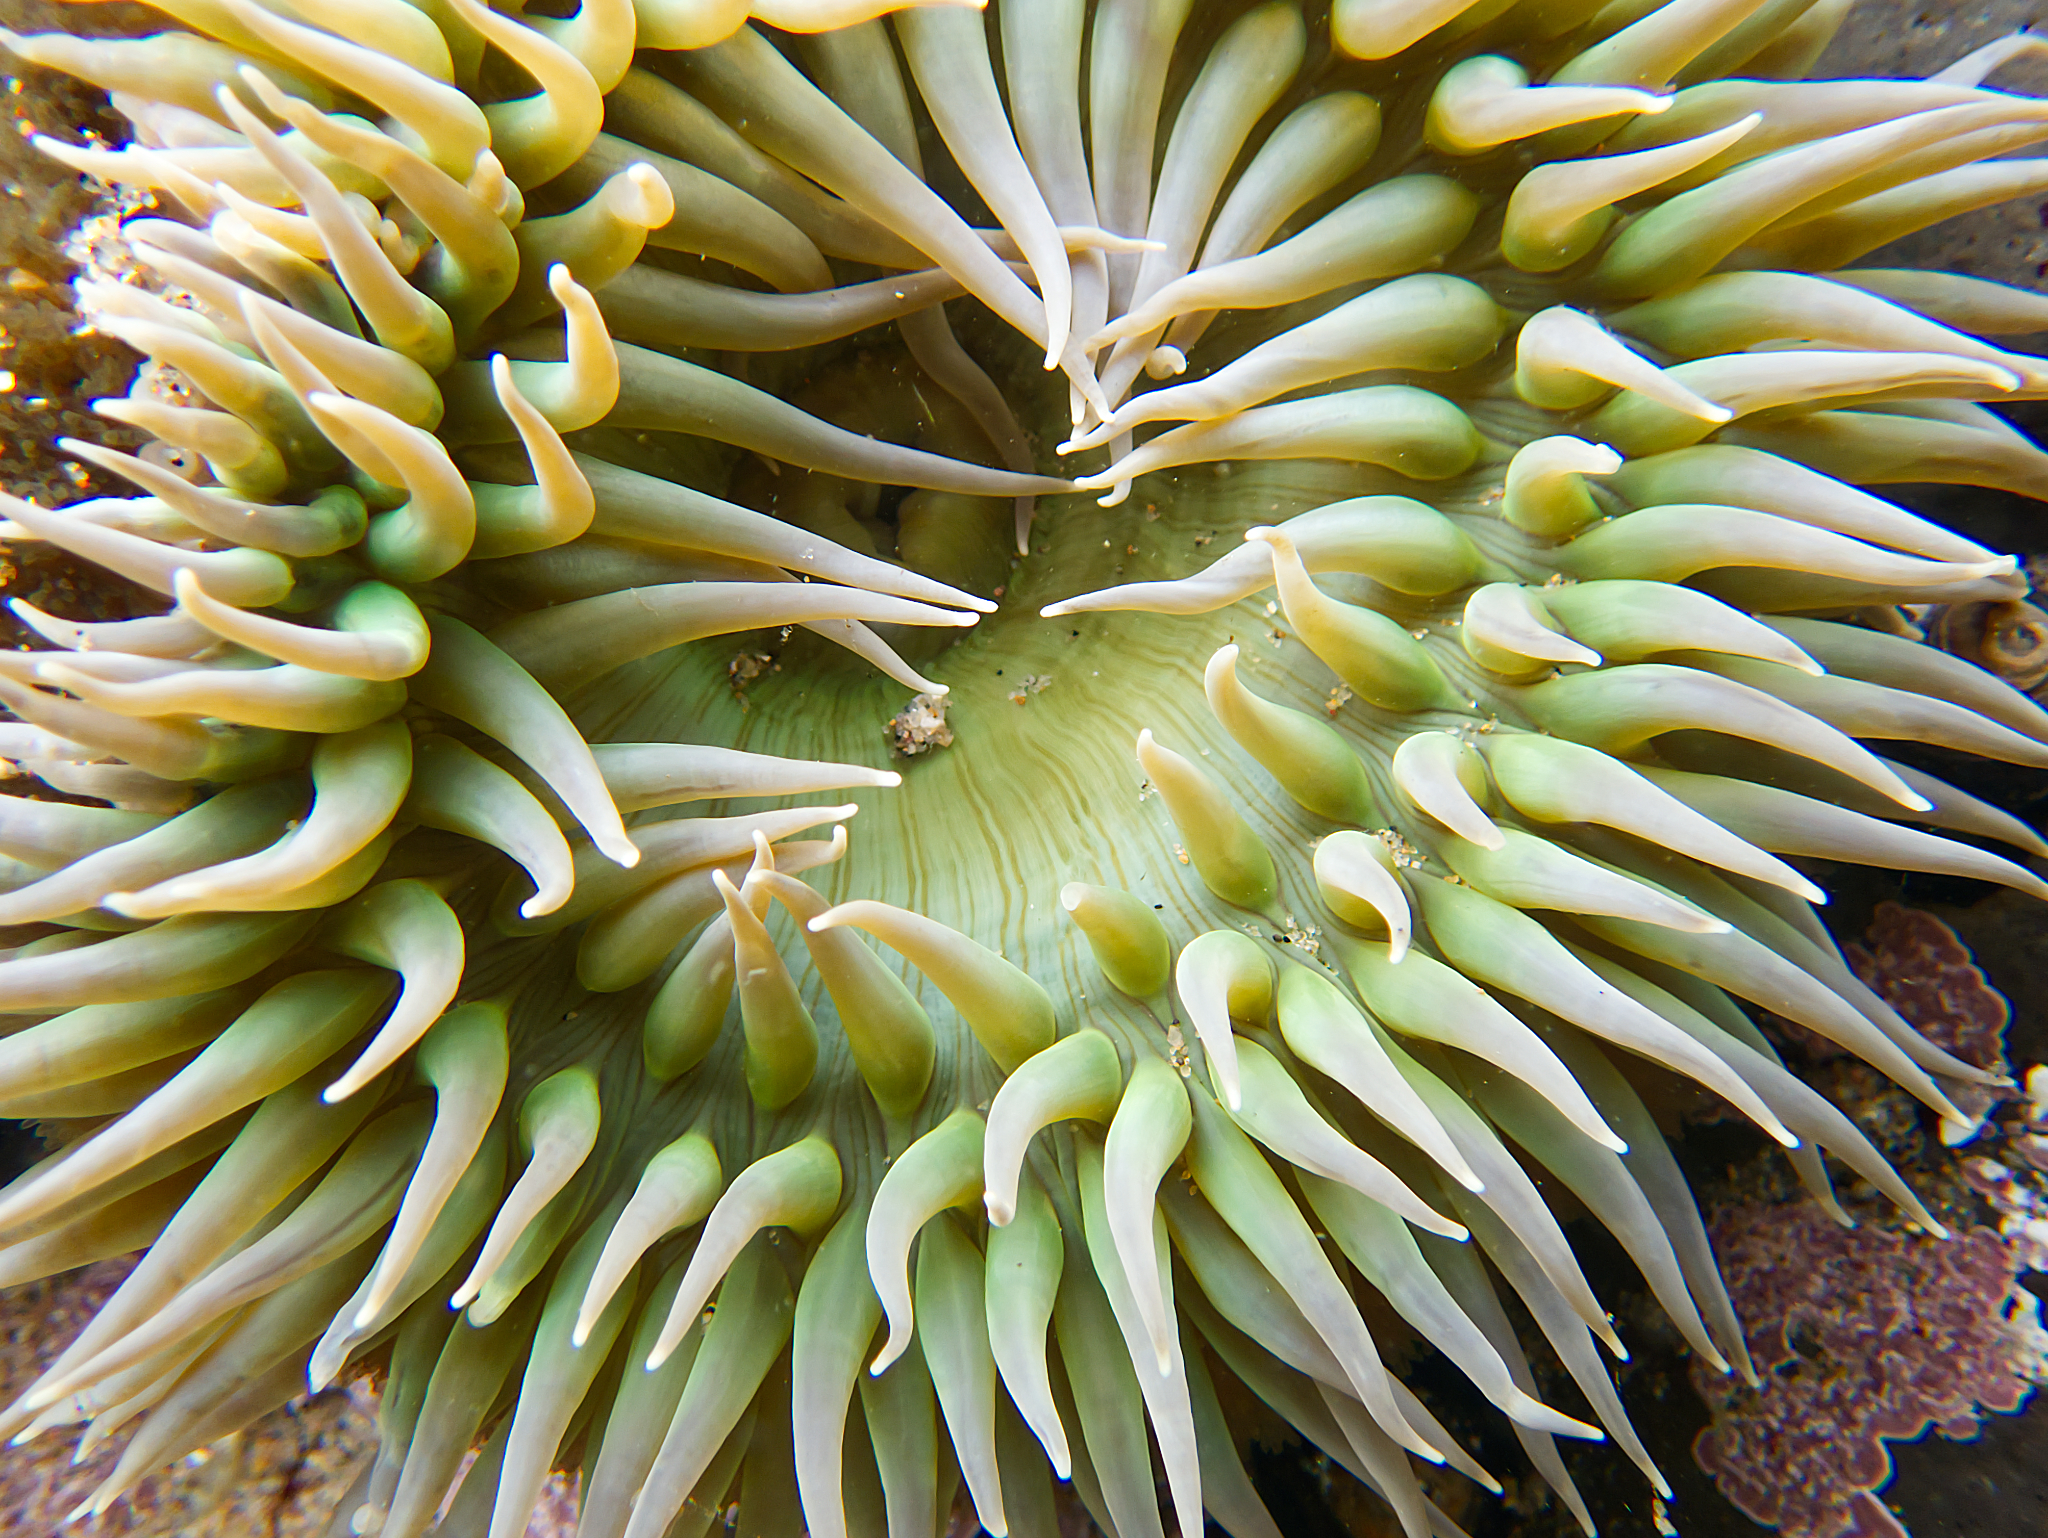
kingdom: Animalia
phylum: Cnidaria
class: Anthozoa
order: Actiniaria
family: Actiniidae
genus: Anthopleura
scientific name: Anthopleura xanthogrammica
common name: Giant green anemone
